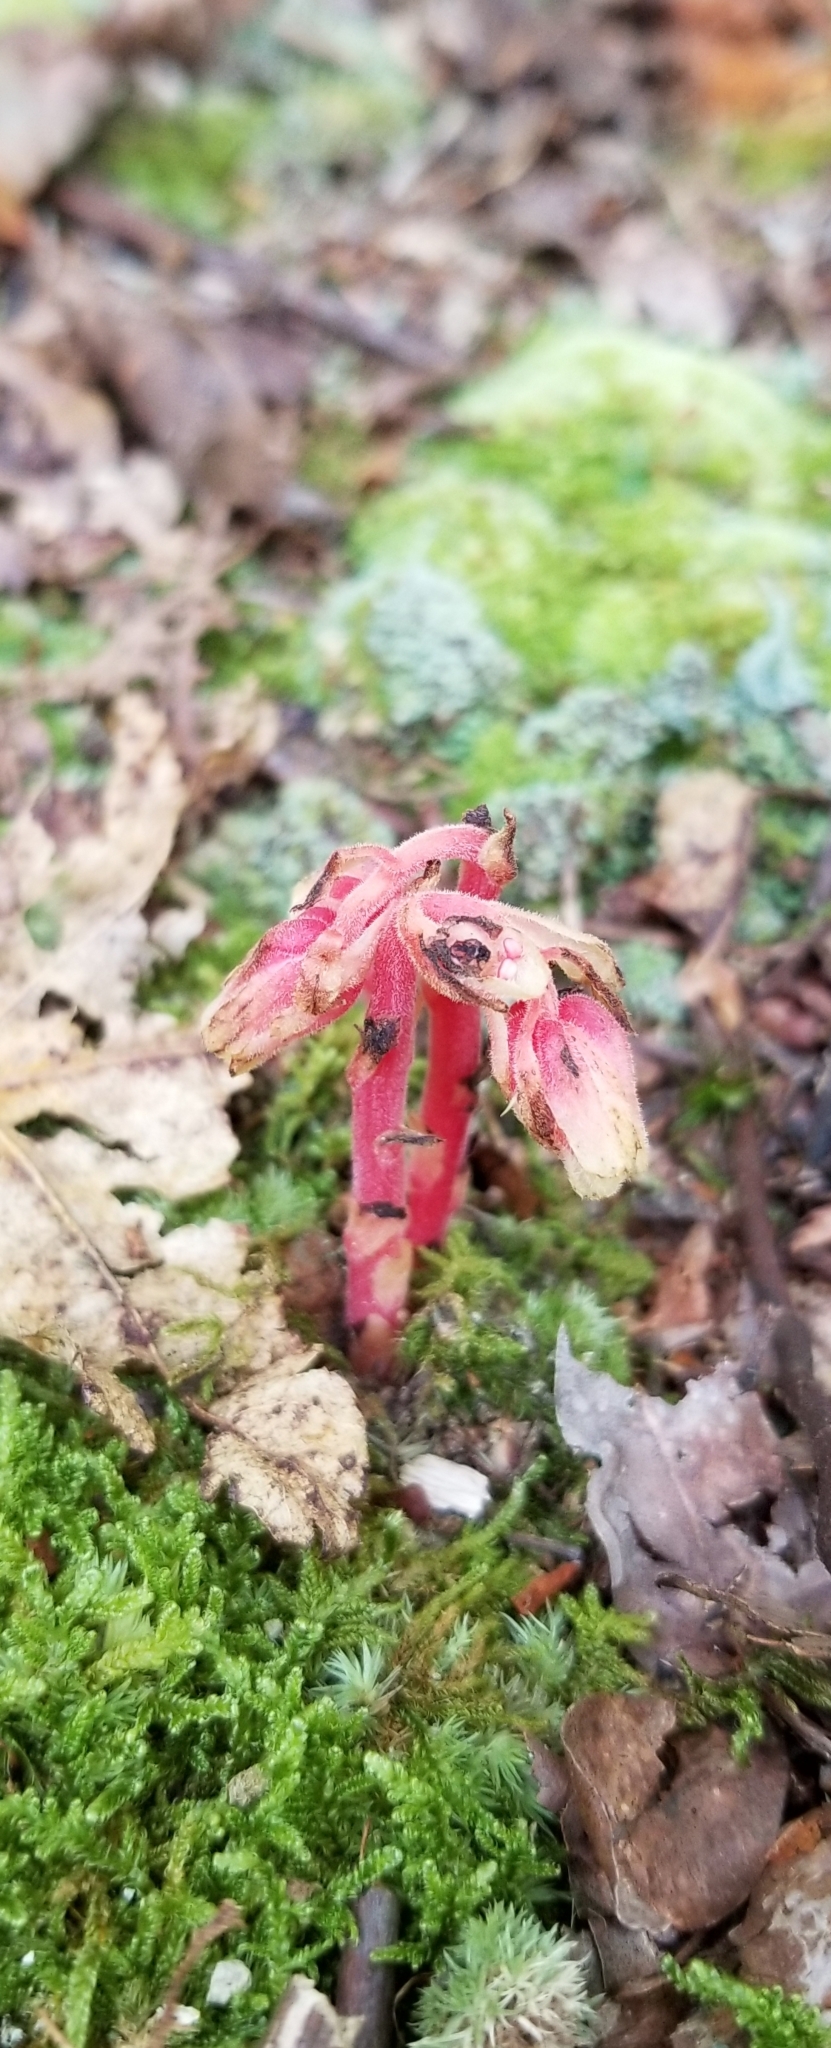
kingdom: Plantae
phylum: Tracheophyta
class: Magnoliopsida
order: Ericales
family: Ericaceae
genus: Hypopitys
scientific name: Hypopitys monotropa
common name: Yellow bird's-nest
